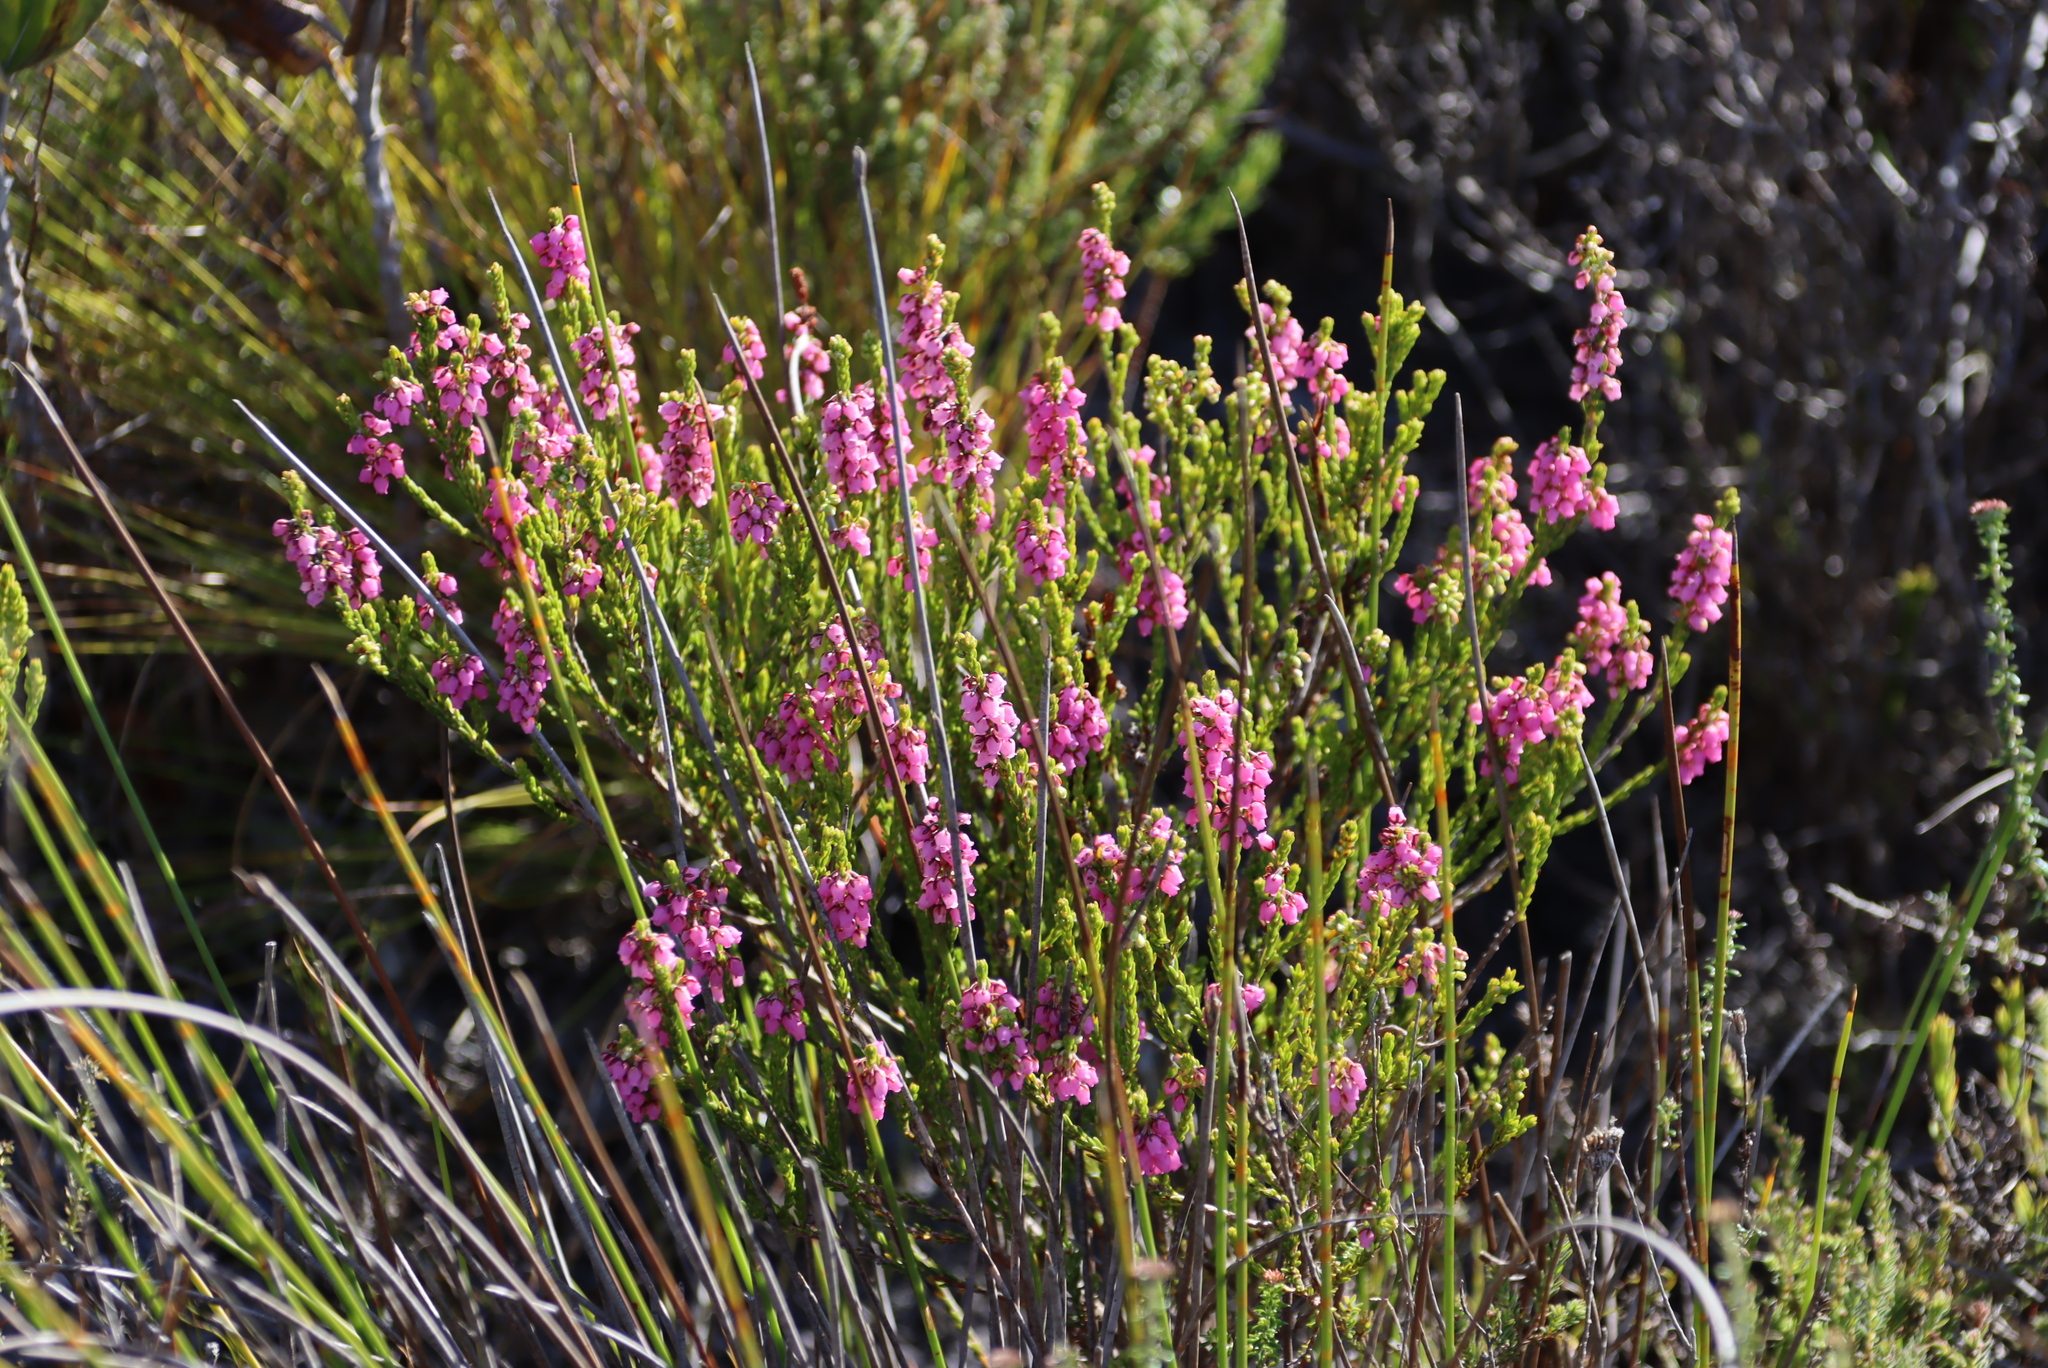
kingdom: Plantae
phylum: Tracheophyta
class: Magnoliopsida
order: Ericales
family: Ericaceae
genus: Erica
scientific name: Erica pulchella
